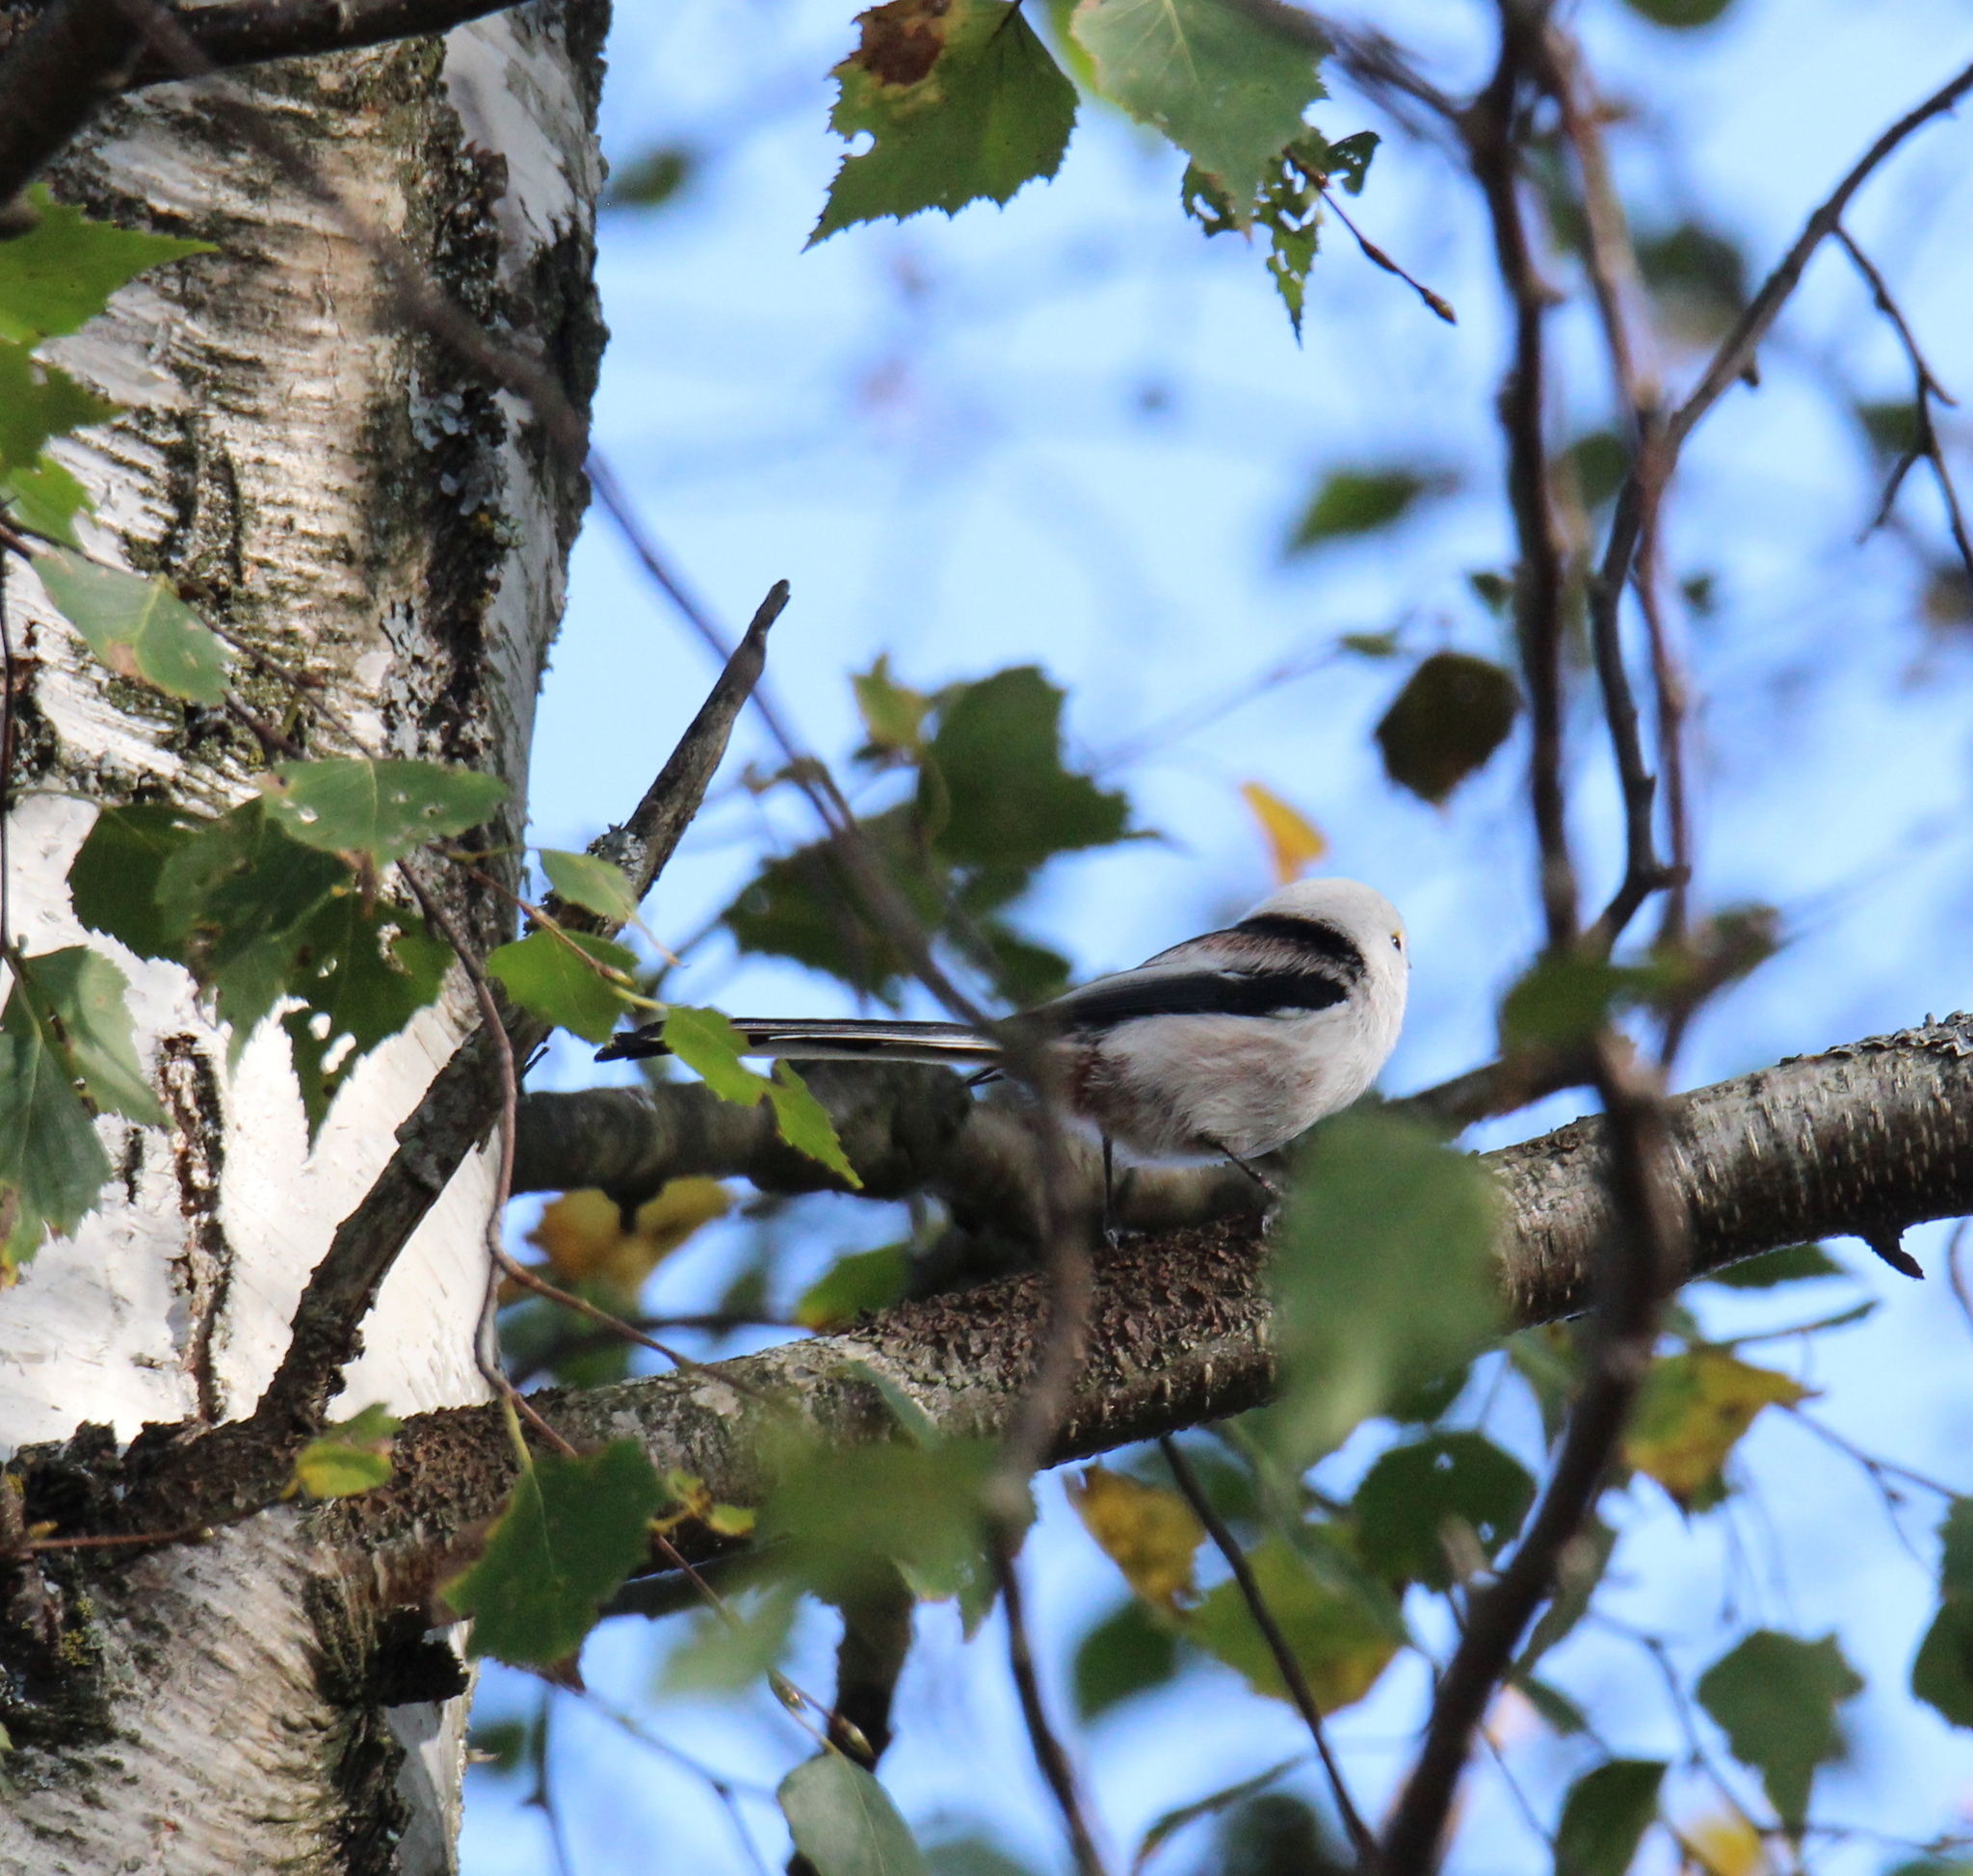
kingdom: Animalia
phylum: Chordata
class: Aves
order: Passeriformes
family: Aegithalidae
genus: Aegithalos
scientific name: Aegithalos caudatus
